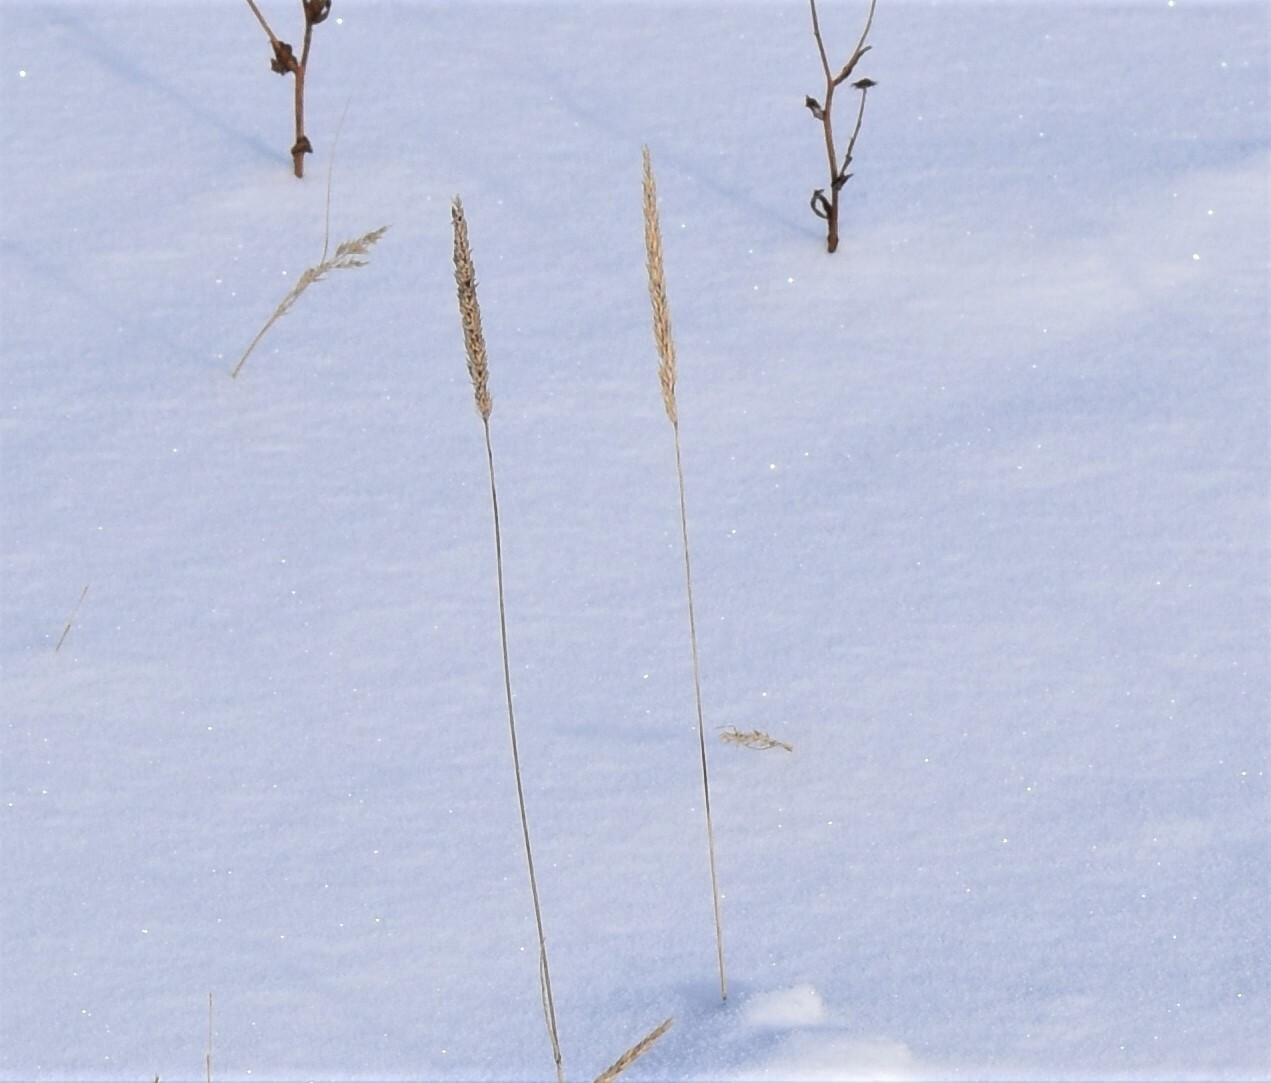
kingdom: Plantae
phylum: Tracheophyta
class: Liliopsida
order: Poales
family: Poaceae
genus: Koeleria
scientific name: Koeleria macrantha
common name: Crested hair-grass
